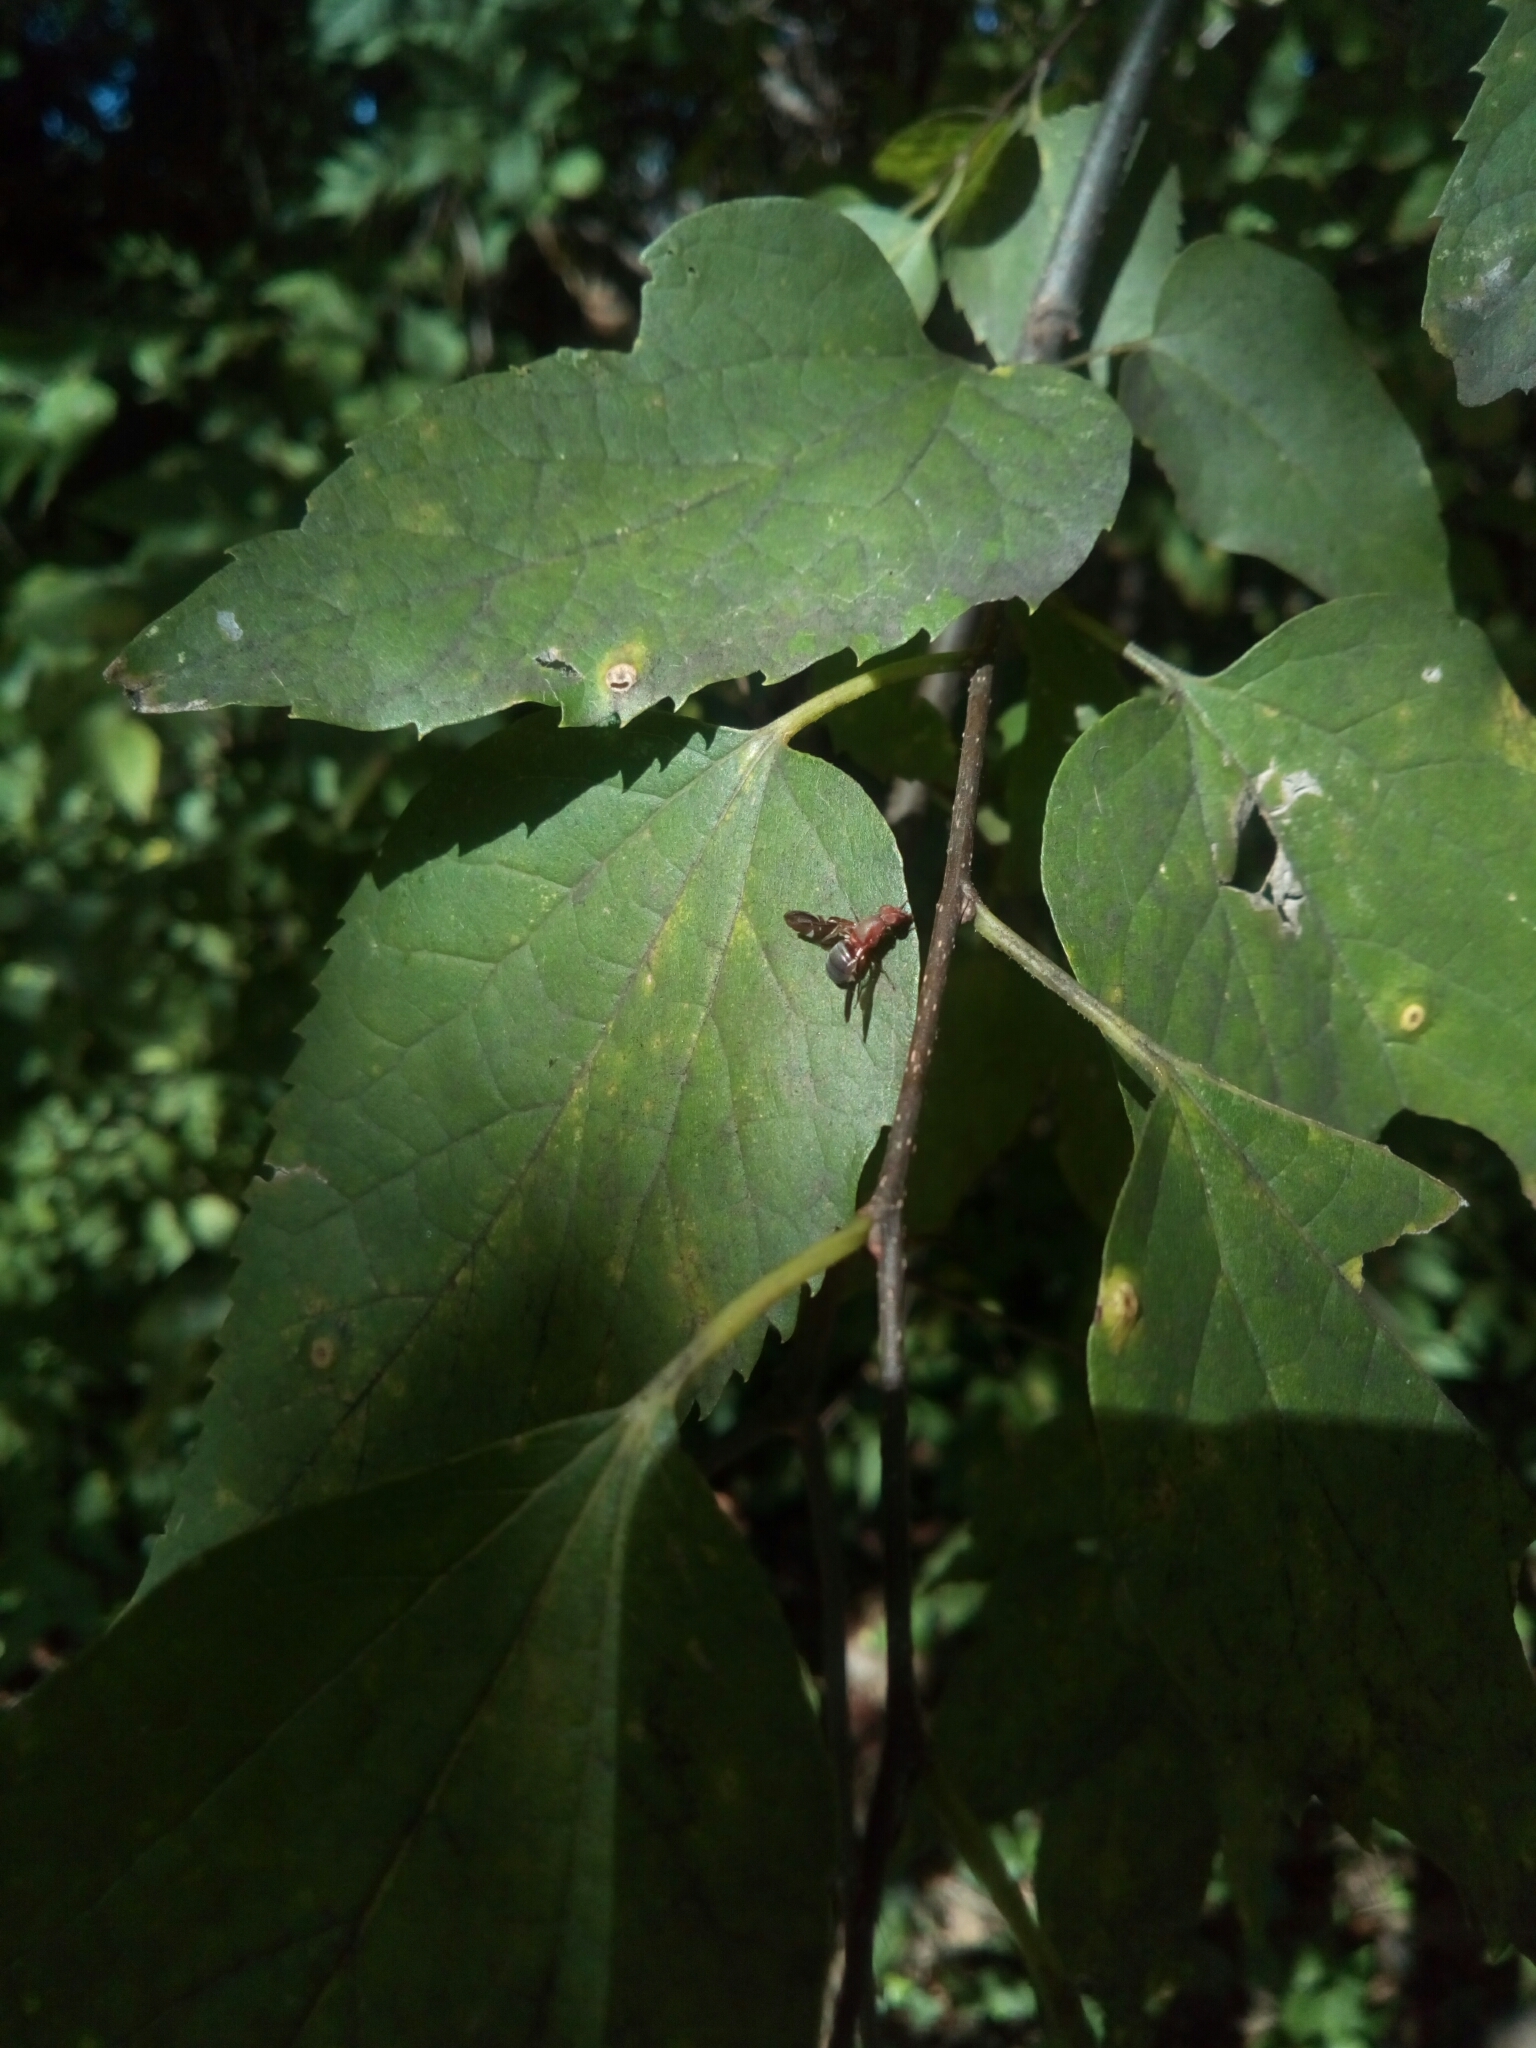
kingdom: Animalia
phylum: Arthropoda
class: Insecta
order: Diptera
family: Ulidiidae
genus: Delphinia
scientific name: Delphinia picta
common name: Common picture-winged fly
